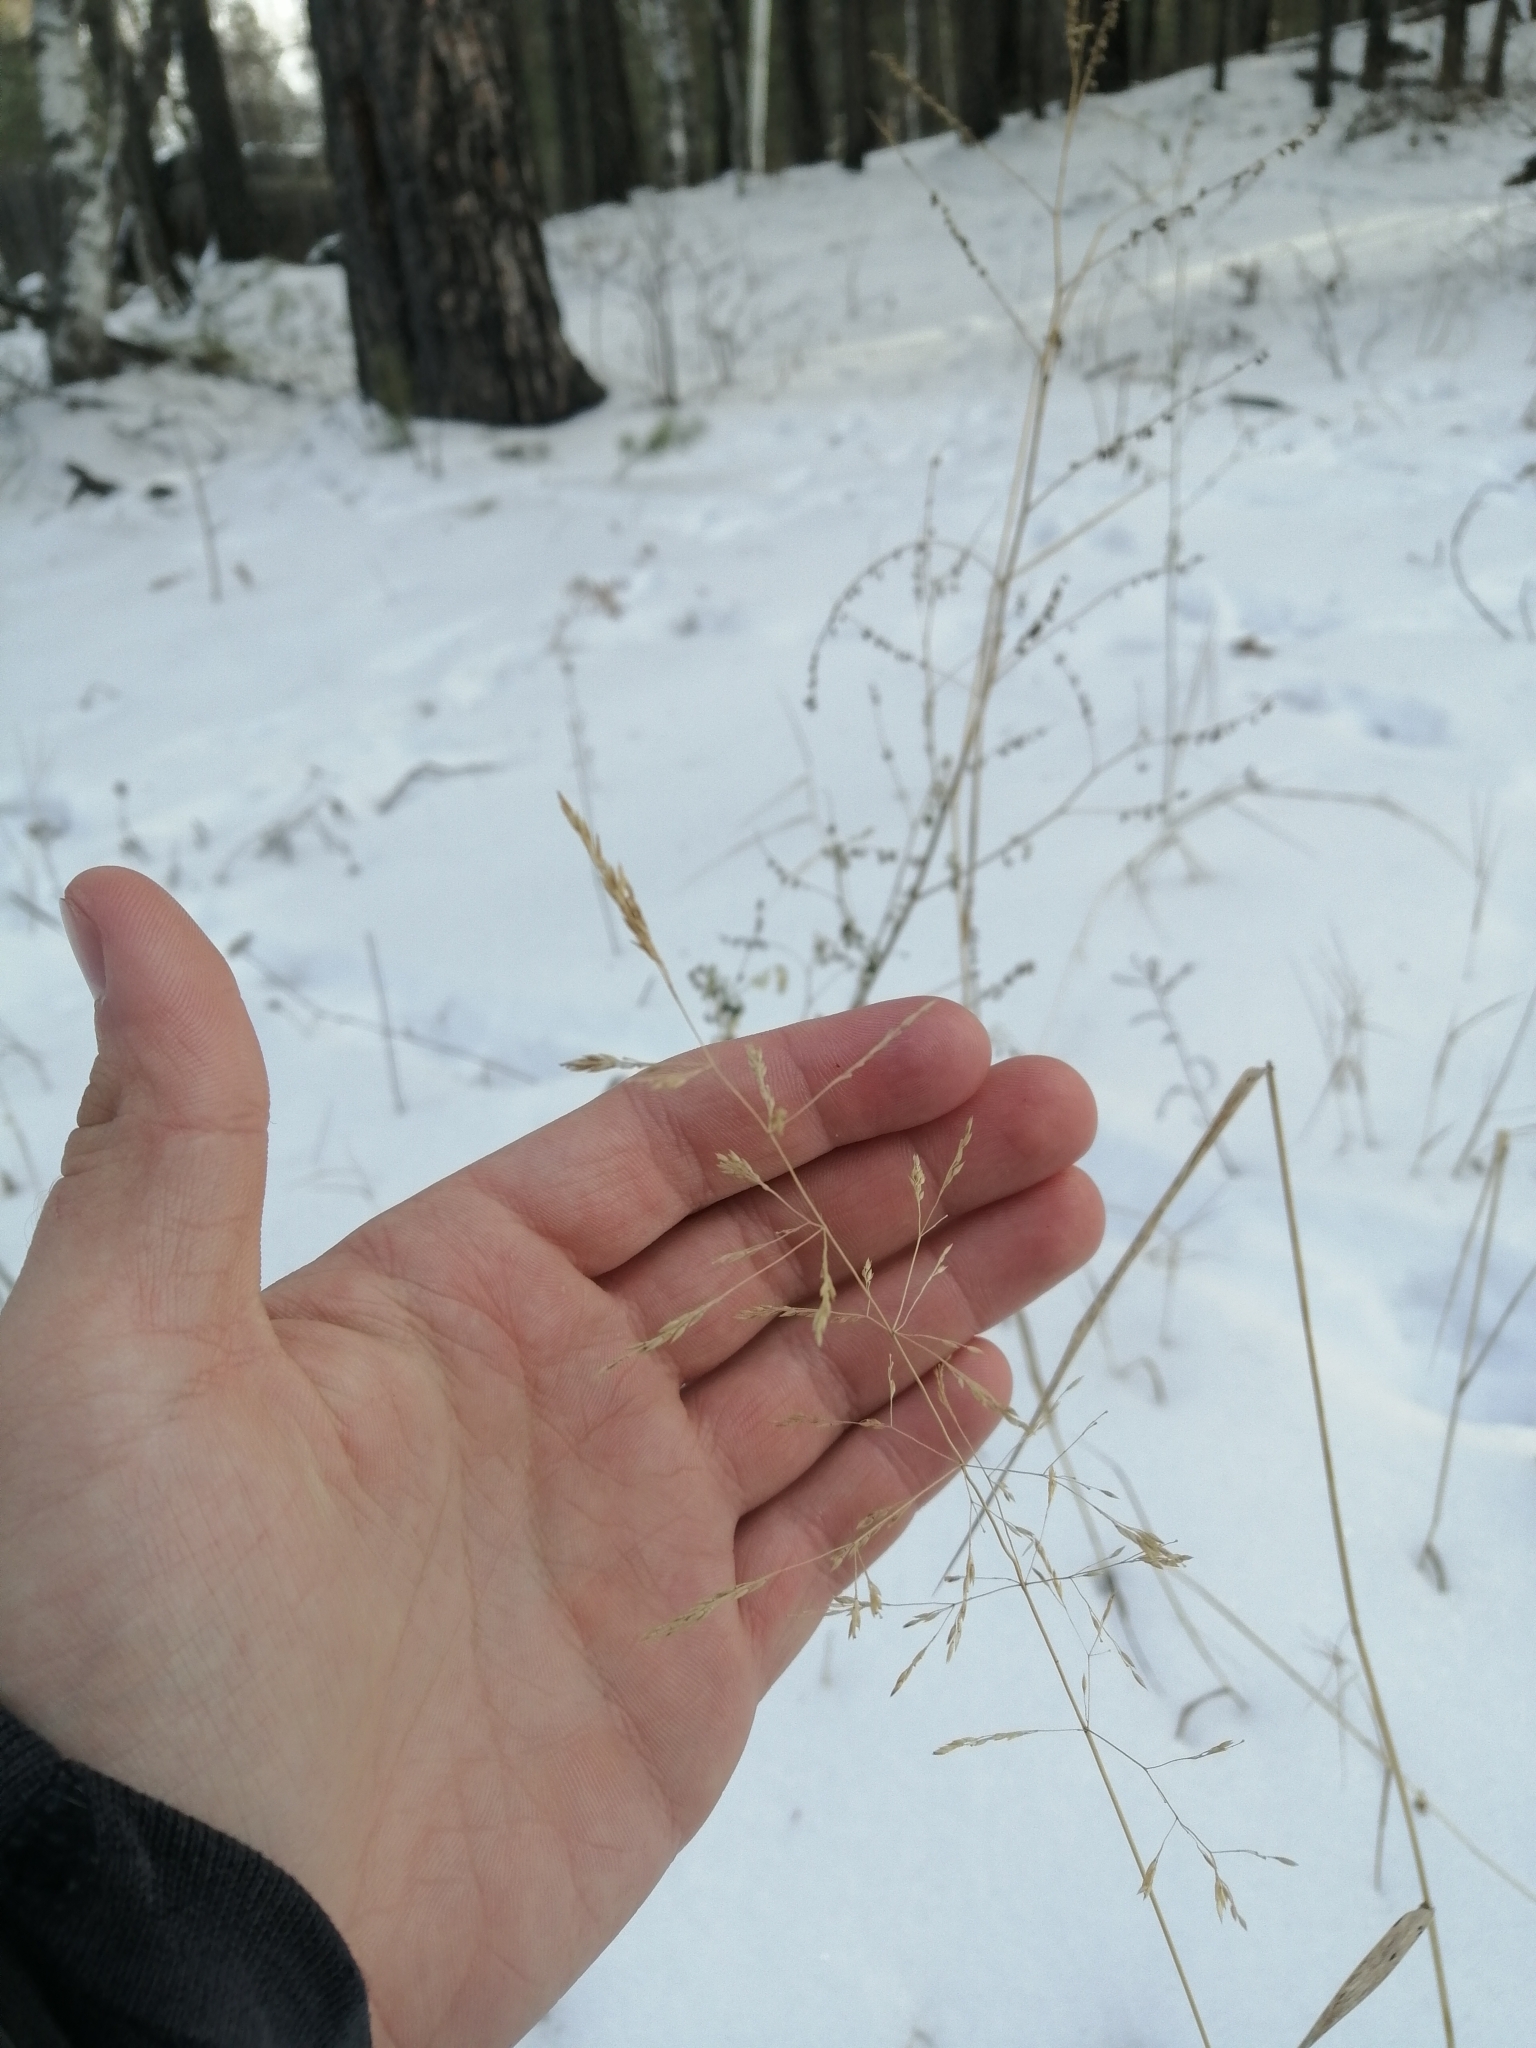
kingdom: Plantae
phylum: Tracheophyta
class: Liliopsida
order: Poales
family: Poaceae
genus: Agrostis
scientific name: Agrostis gigantea
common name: Black bent
